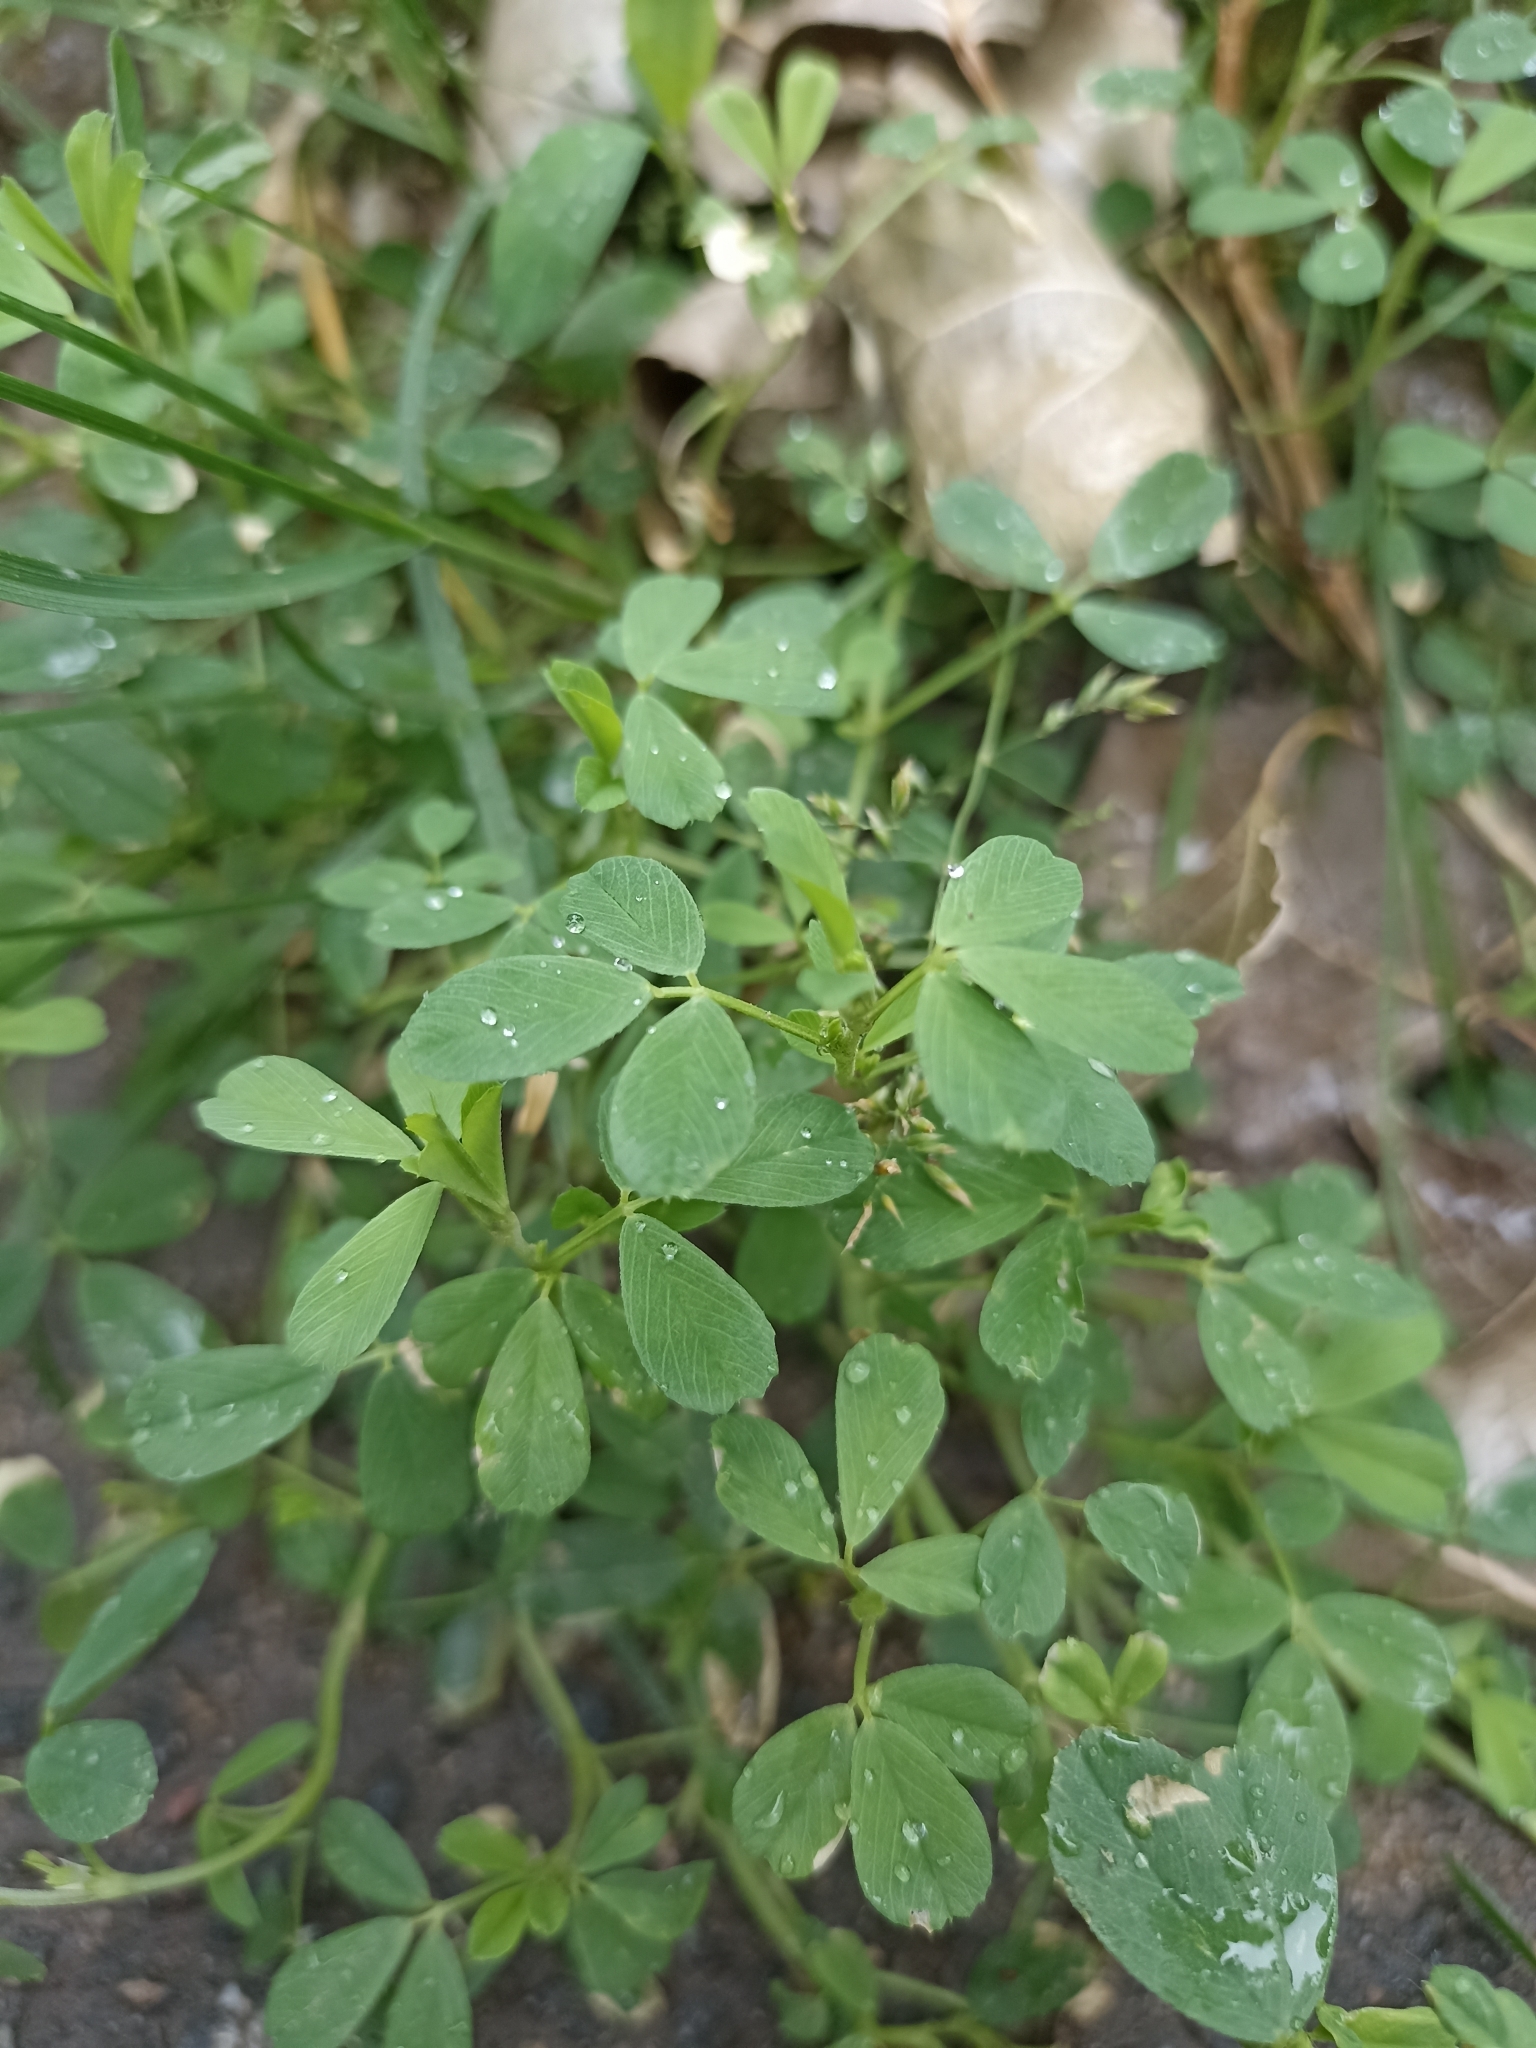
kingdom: Plantae
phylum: Tracheophyta
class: Magnoliopsida
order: Fabales
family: Fabaceae
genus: Medicago
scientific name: Medicago lupulina
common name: Black medick
